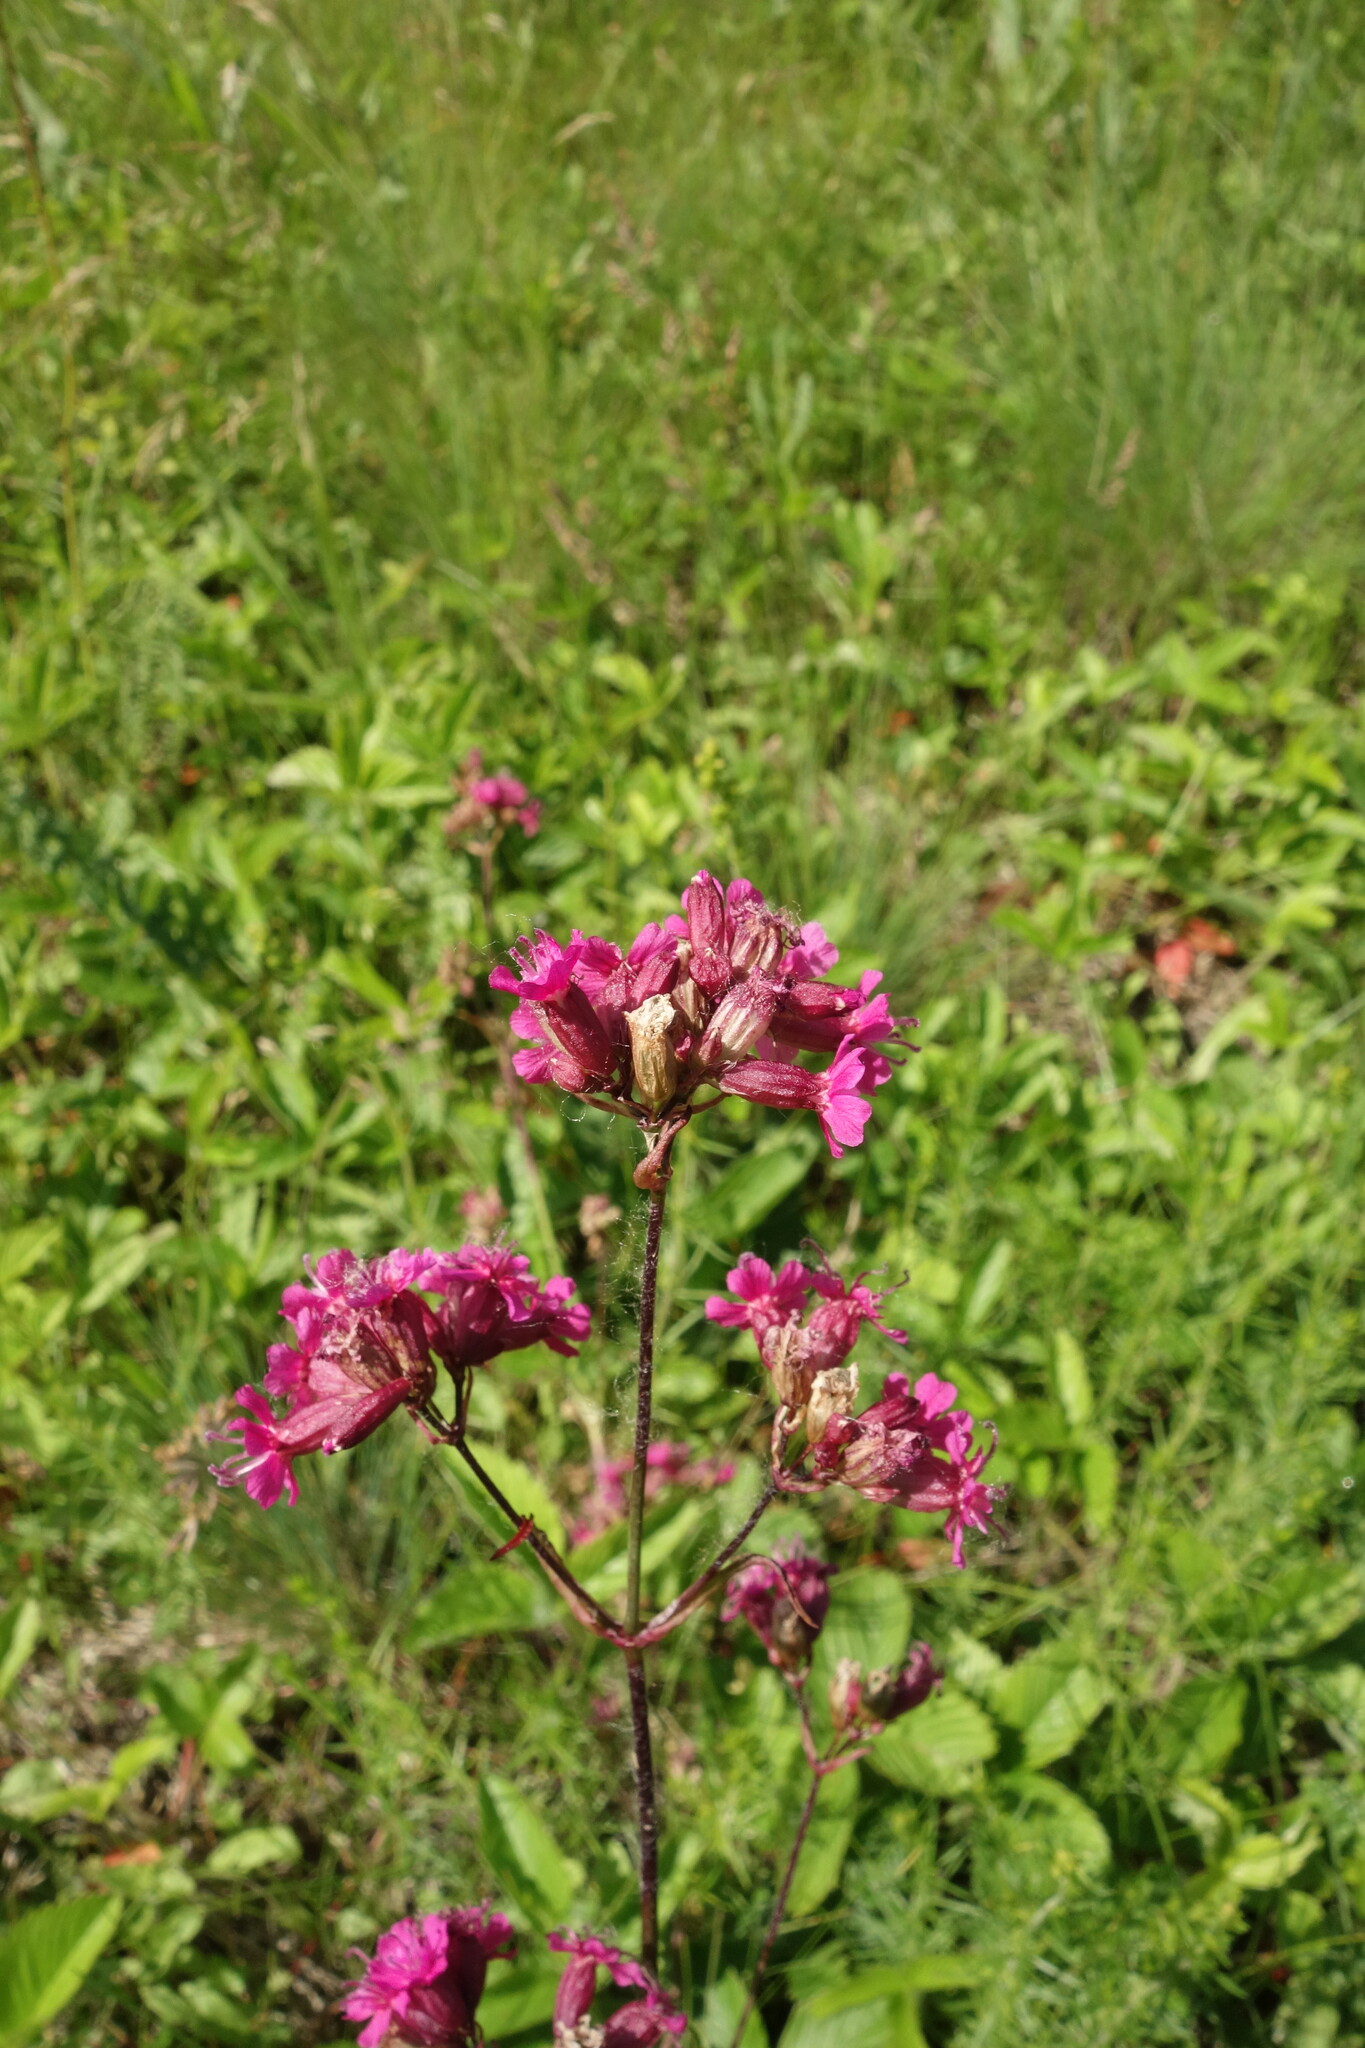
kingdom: Plantae
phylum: Tracheophyta
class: Magnoliopsida
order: Caryophyllales
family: Caryophyllaceae
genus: Viscaria
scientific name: Viscaria vulgaris
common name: Clammy campion
